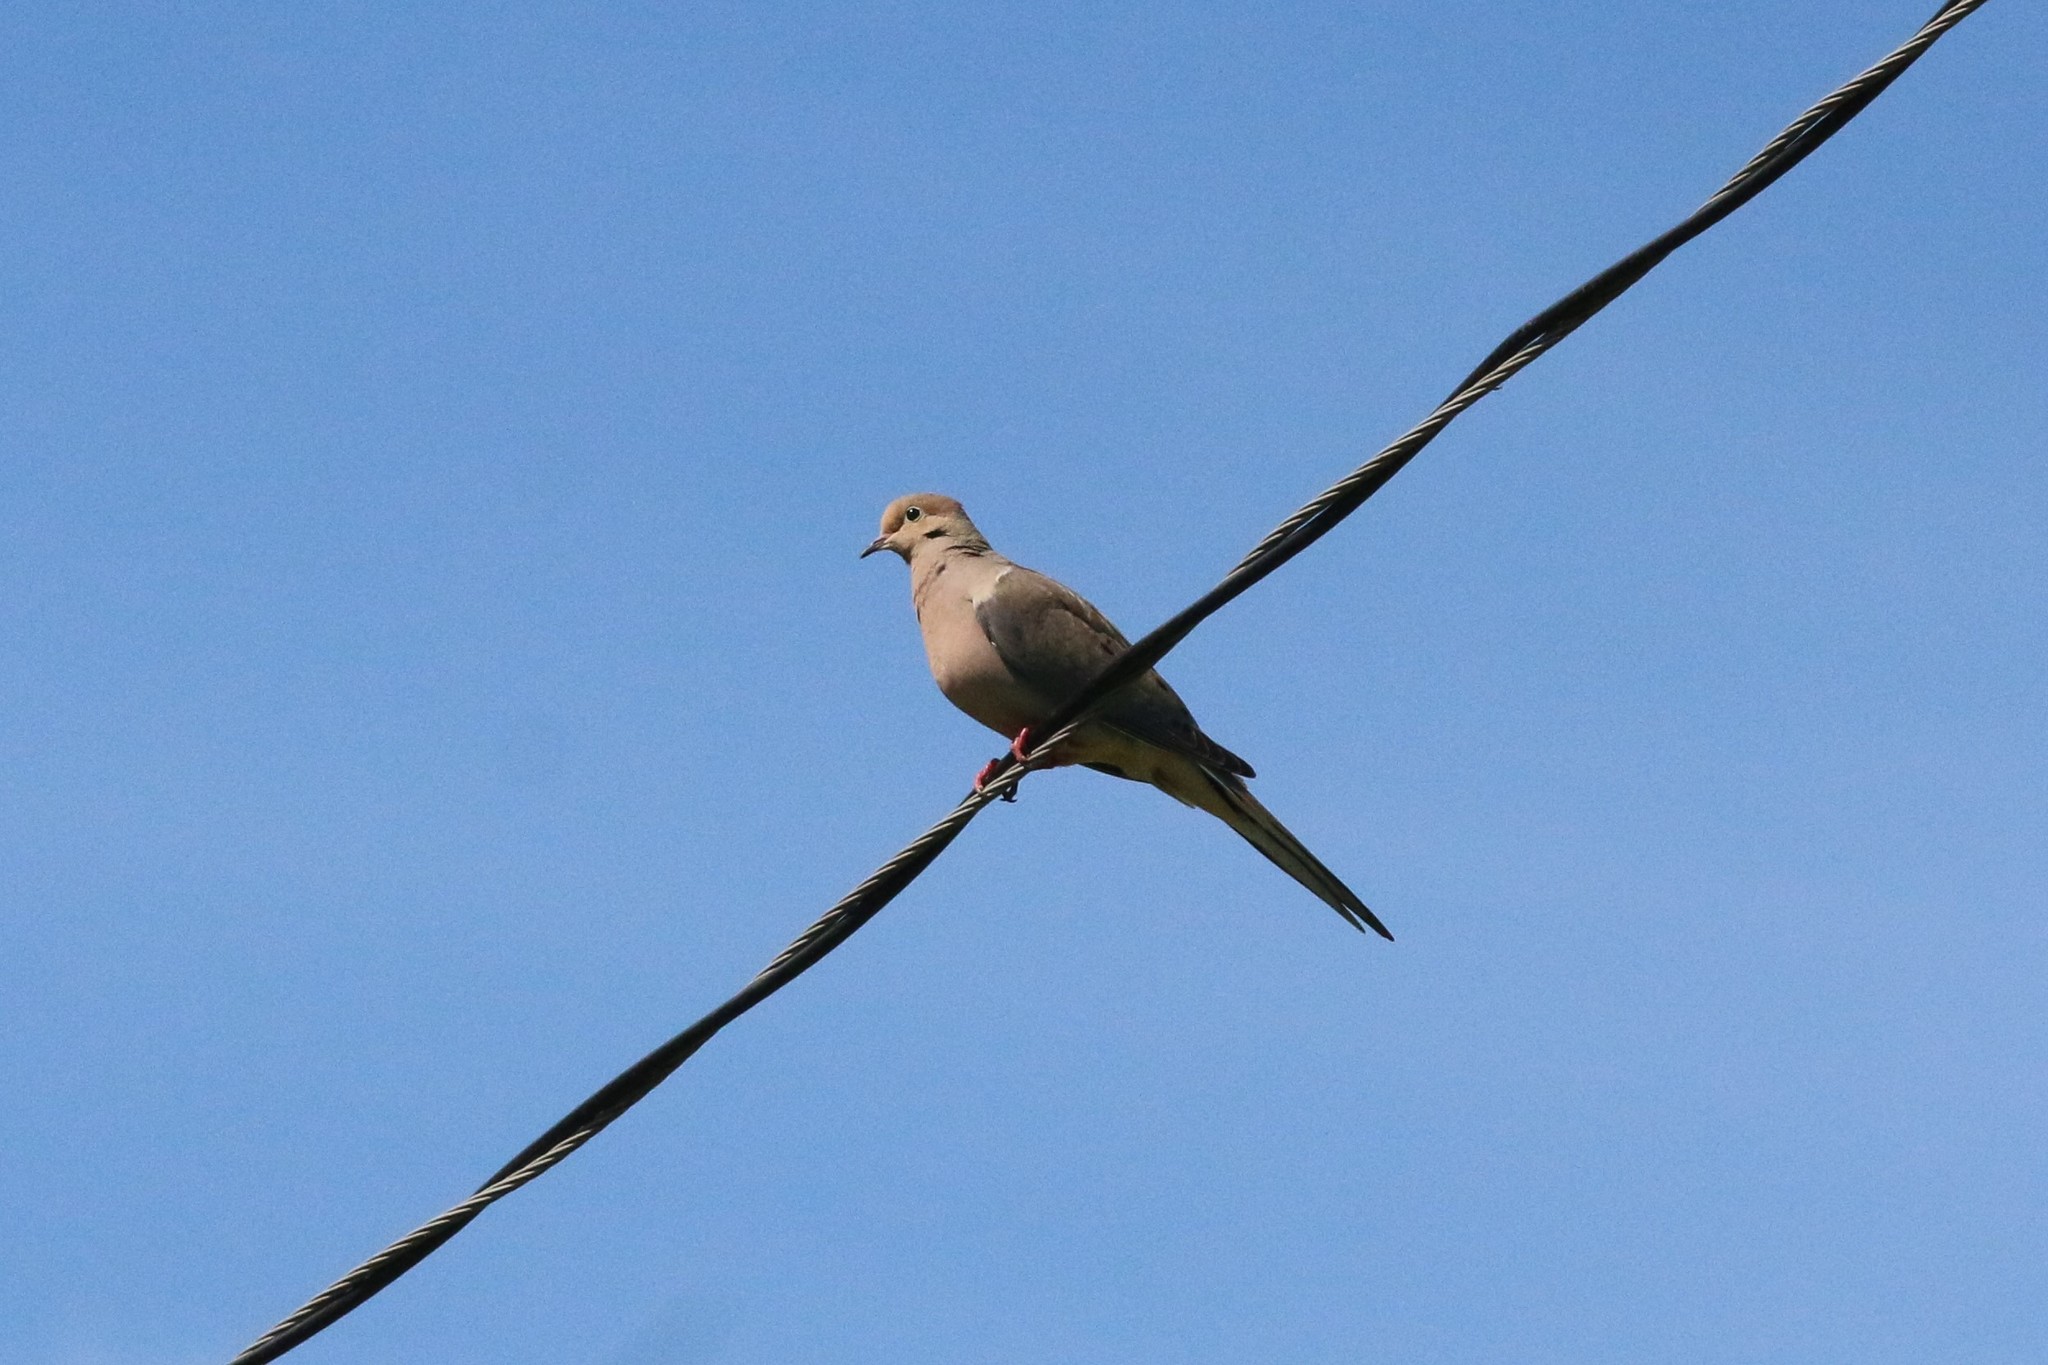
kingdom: Animalia
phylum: Chordata
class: Aves
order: Columbiformes
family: Columbidae
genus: Zenaida
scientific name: Zenaida macroura
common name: Mourning dove
